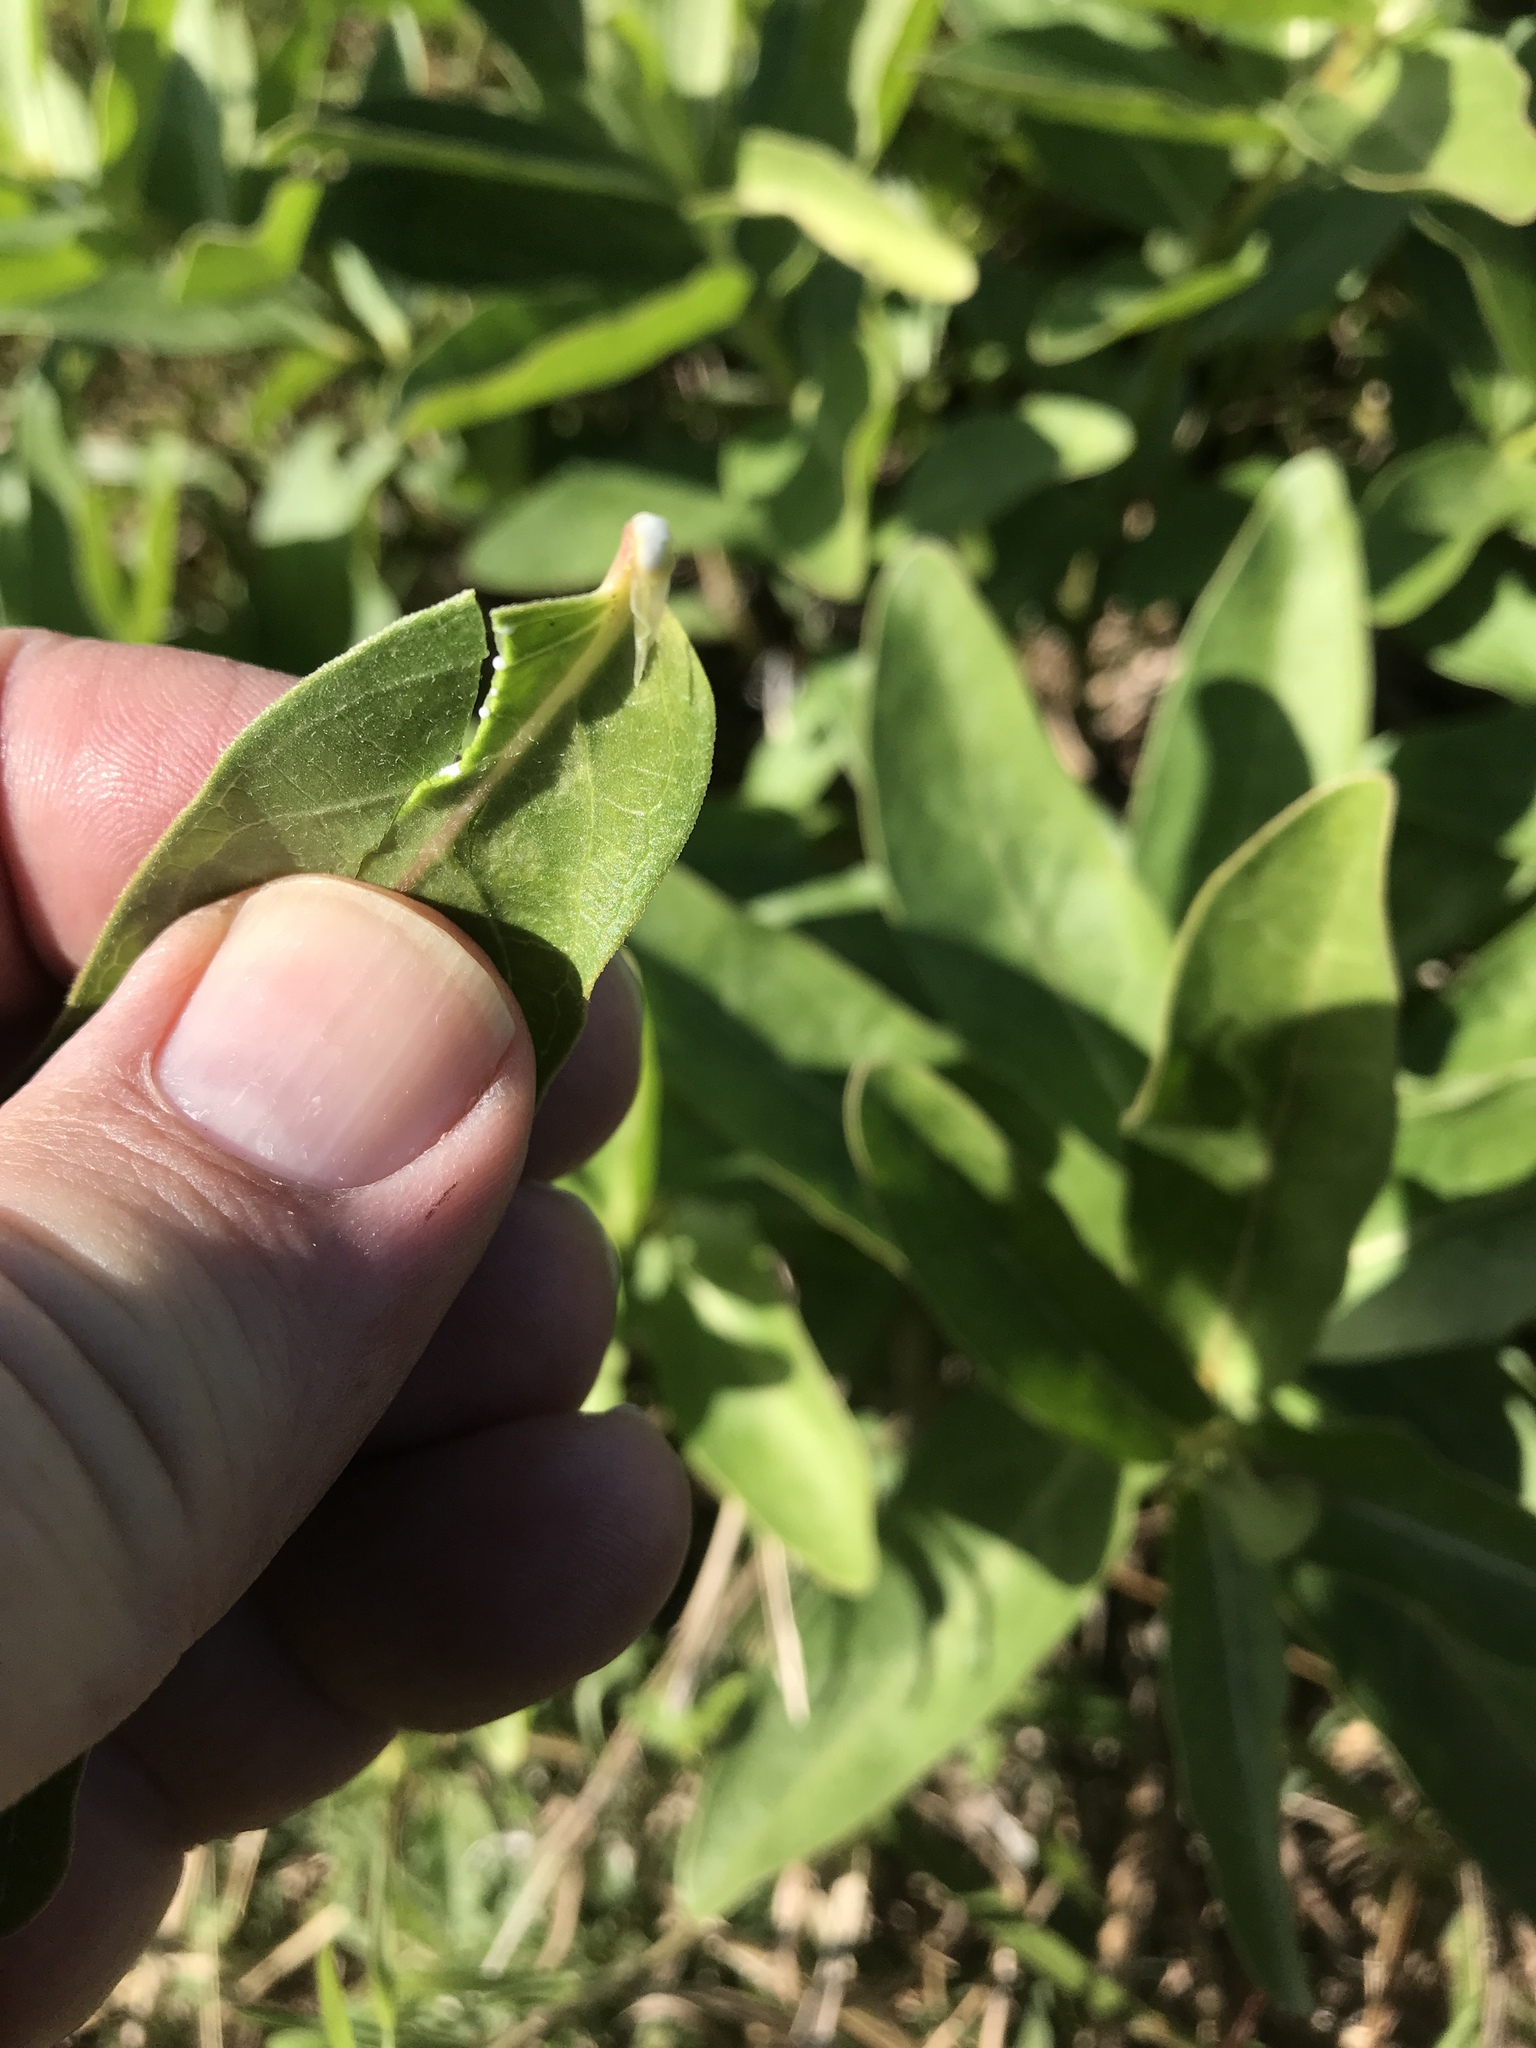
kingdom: Plantae
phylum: Tracheophyta
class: Magnoliopsida
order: Gentianales
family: Apocynaceae
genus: Asclepias
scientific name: Asclepias viridis
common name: Antelope-horns
